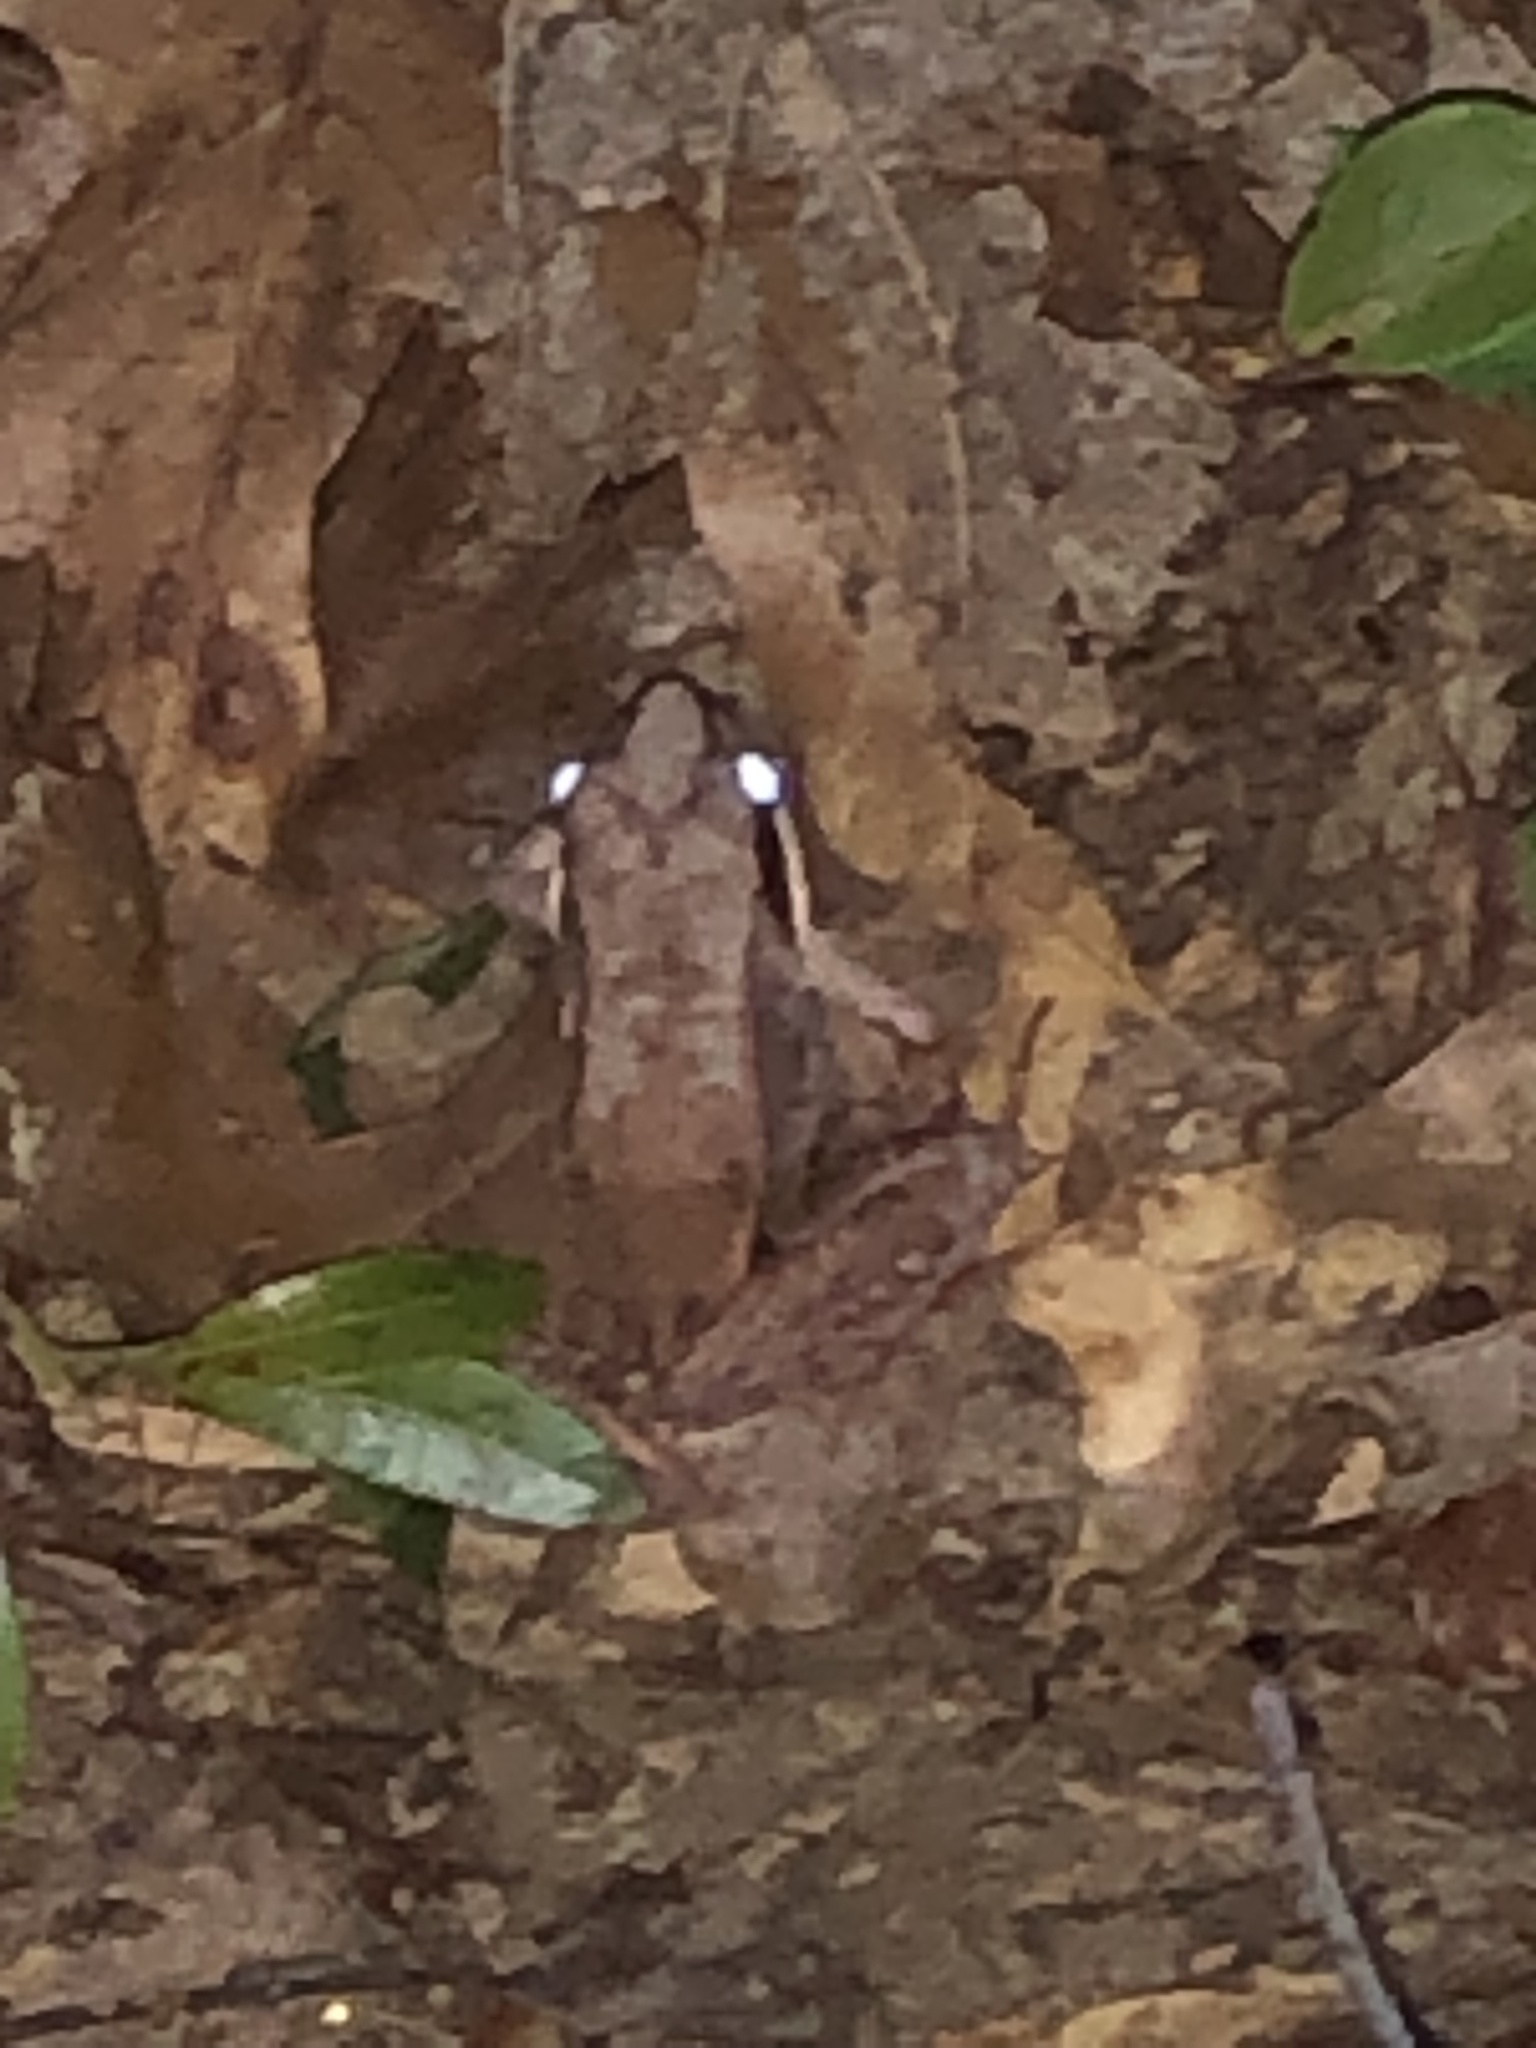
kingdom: Animalia
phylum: Chordata
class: Amphibia
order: Anura
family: Ranidae
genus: Lithobates
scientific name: Lithobates sylvaticus
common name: Wood frog
